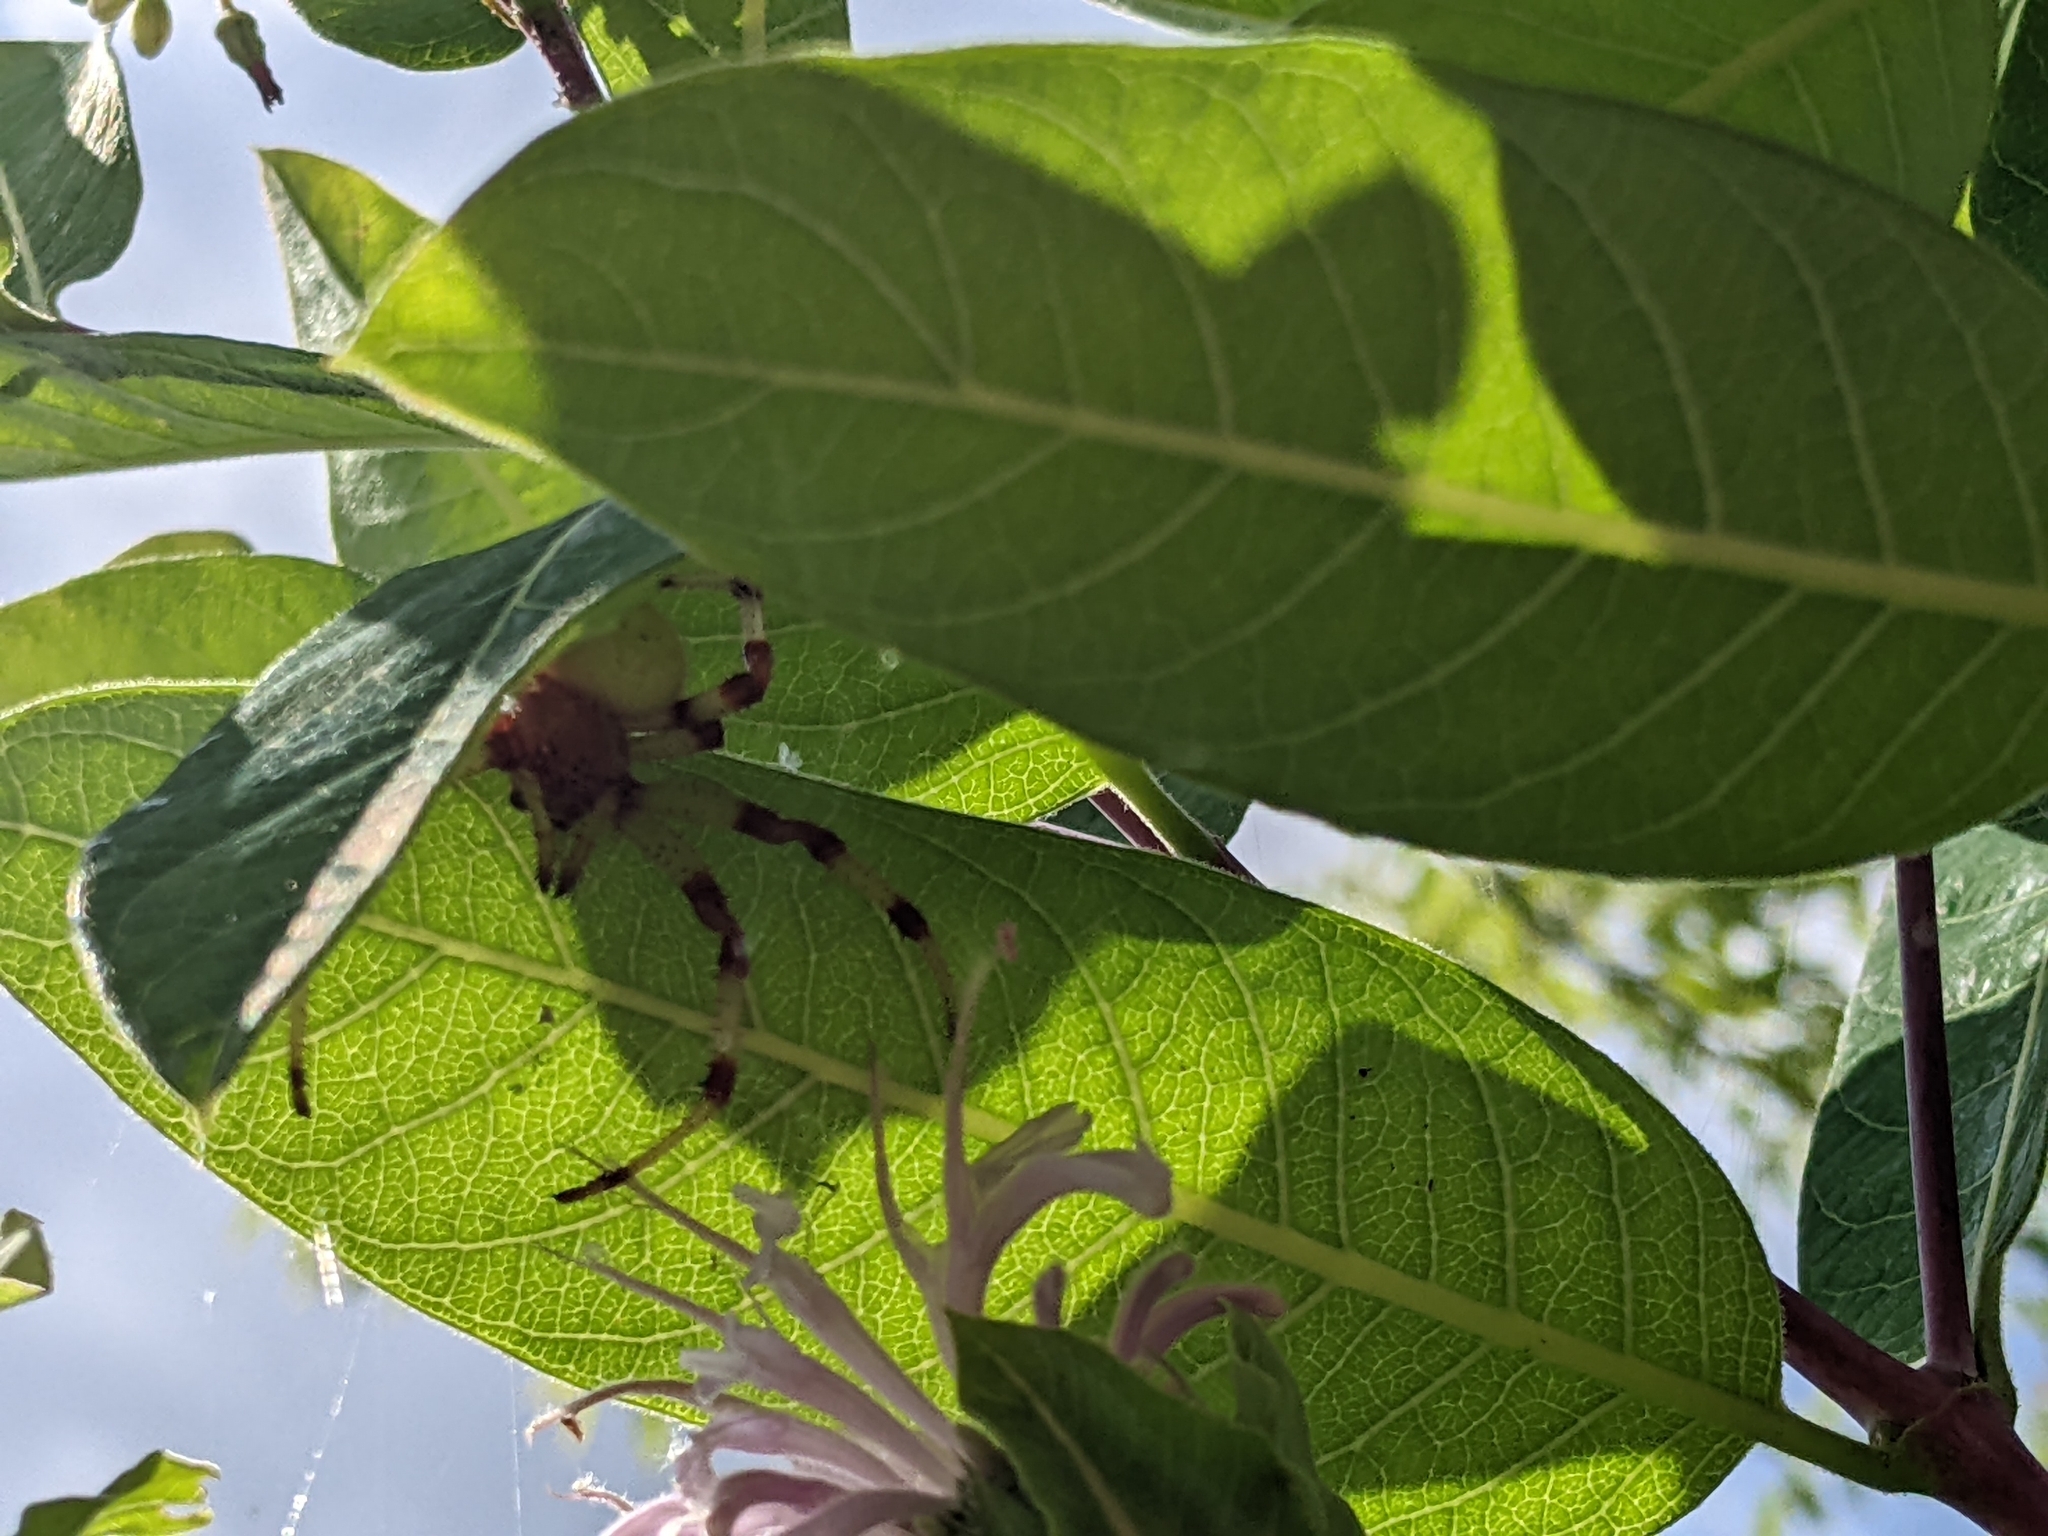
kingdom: Animalia
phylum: Arthropoda
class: Arachnida
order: Araneae
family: Araneidae
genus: Araneus
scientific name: Araneus trifolium
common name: Shamrock orbweaver
